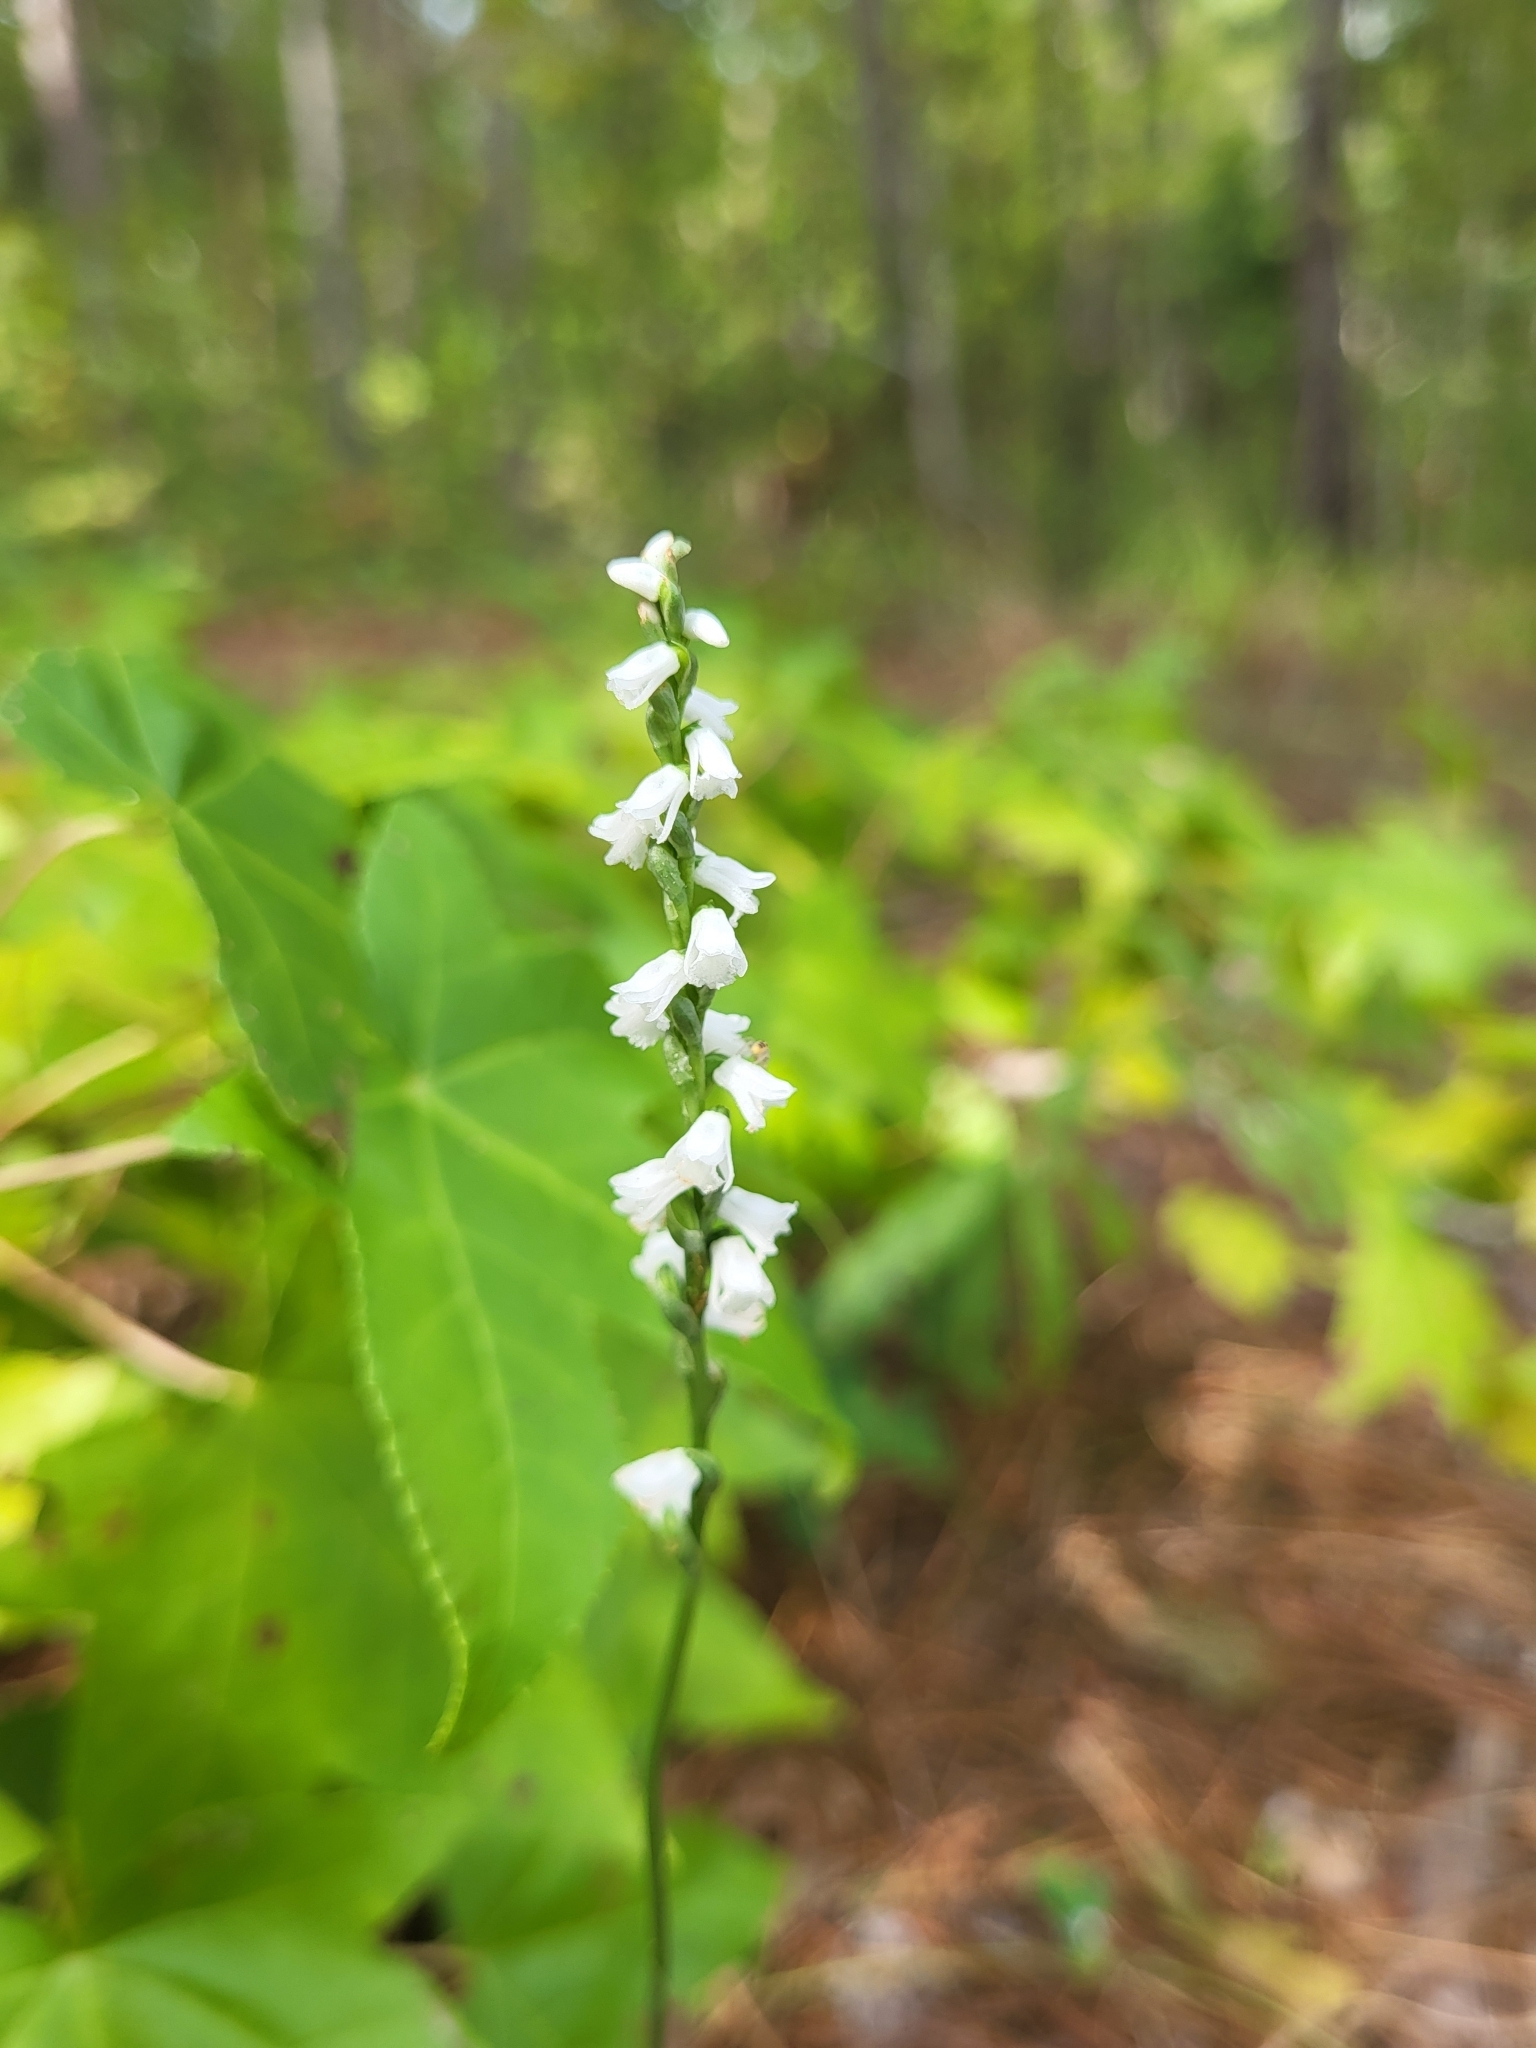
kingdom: Plantae
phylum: Tracheophyta
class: Liliopsida
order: Asparagales
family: Orchidaceae
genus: Spiranthes
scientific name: Spiranthes tuberosa
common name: Little ladies'-tresses
